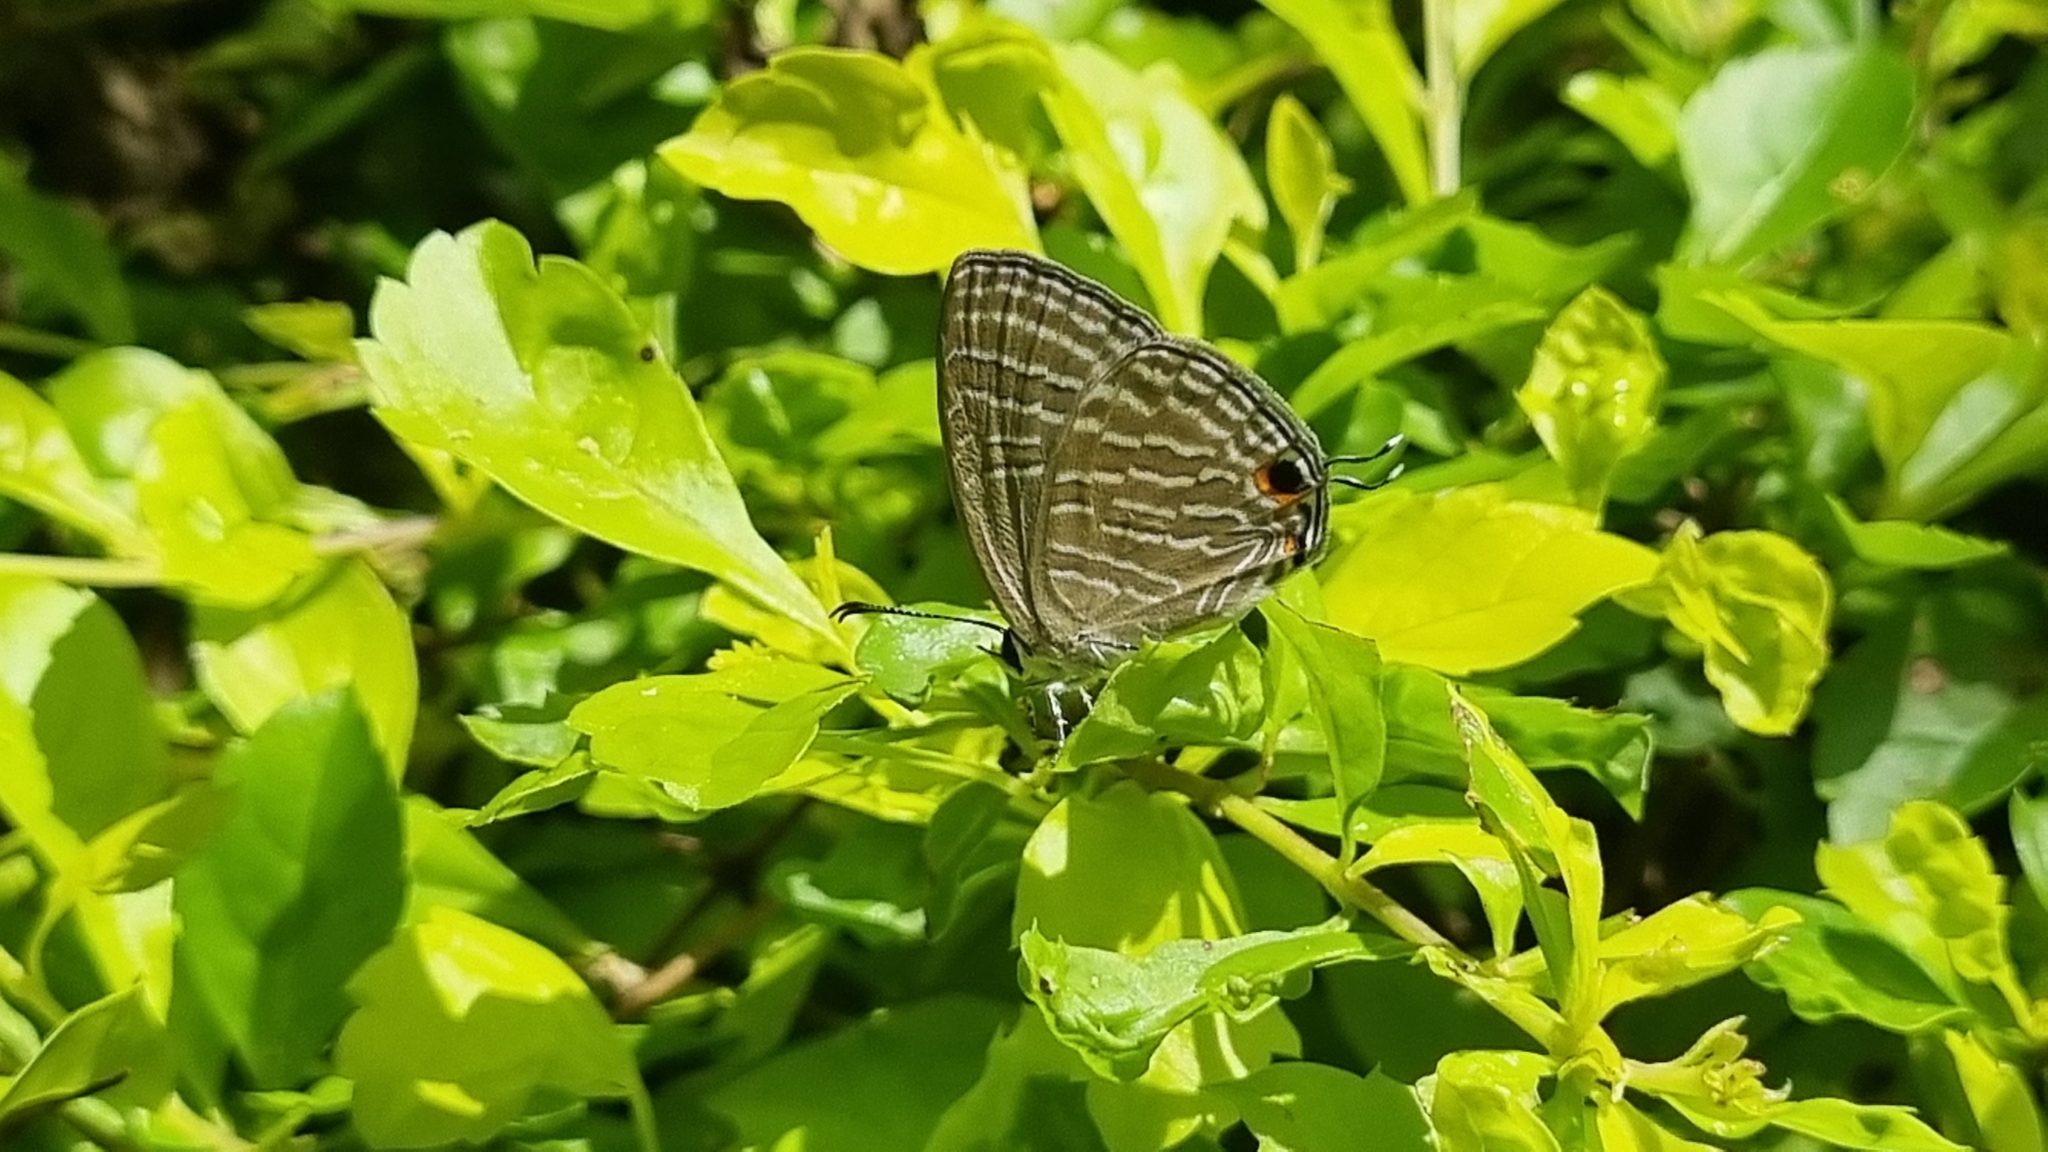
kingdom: Animalia
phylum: Arthropoda
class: Insecta
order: Lepidoptera
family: Lycaenidae
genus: Jamides
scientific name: Jamides celeno
